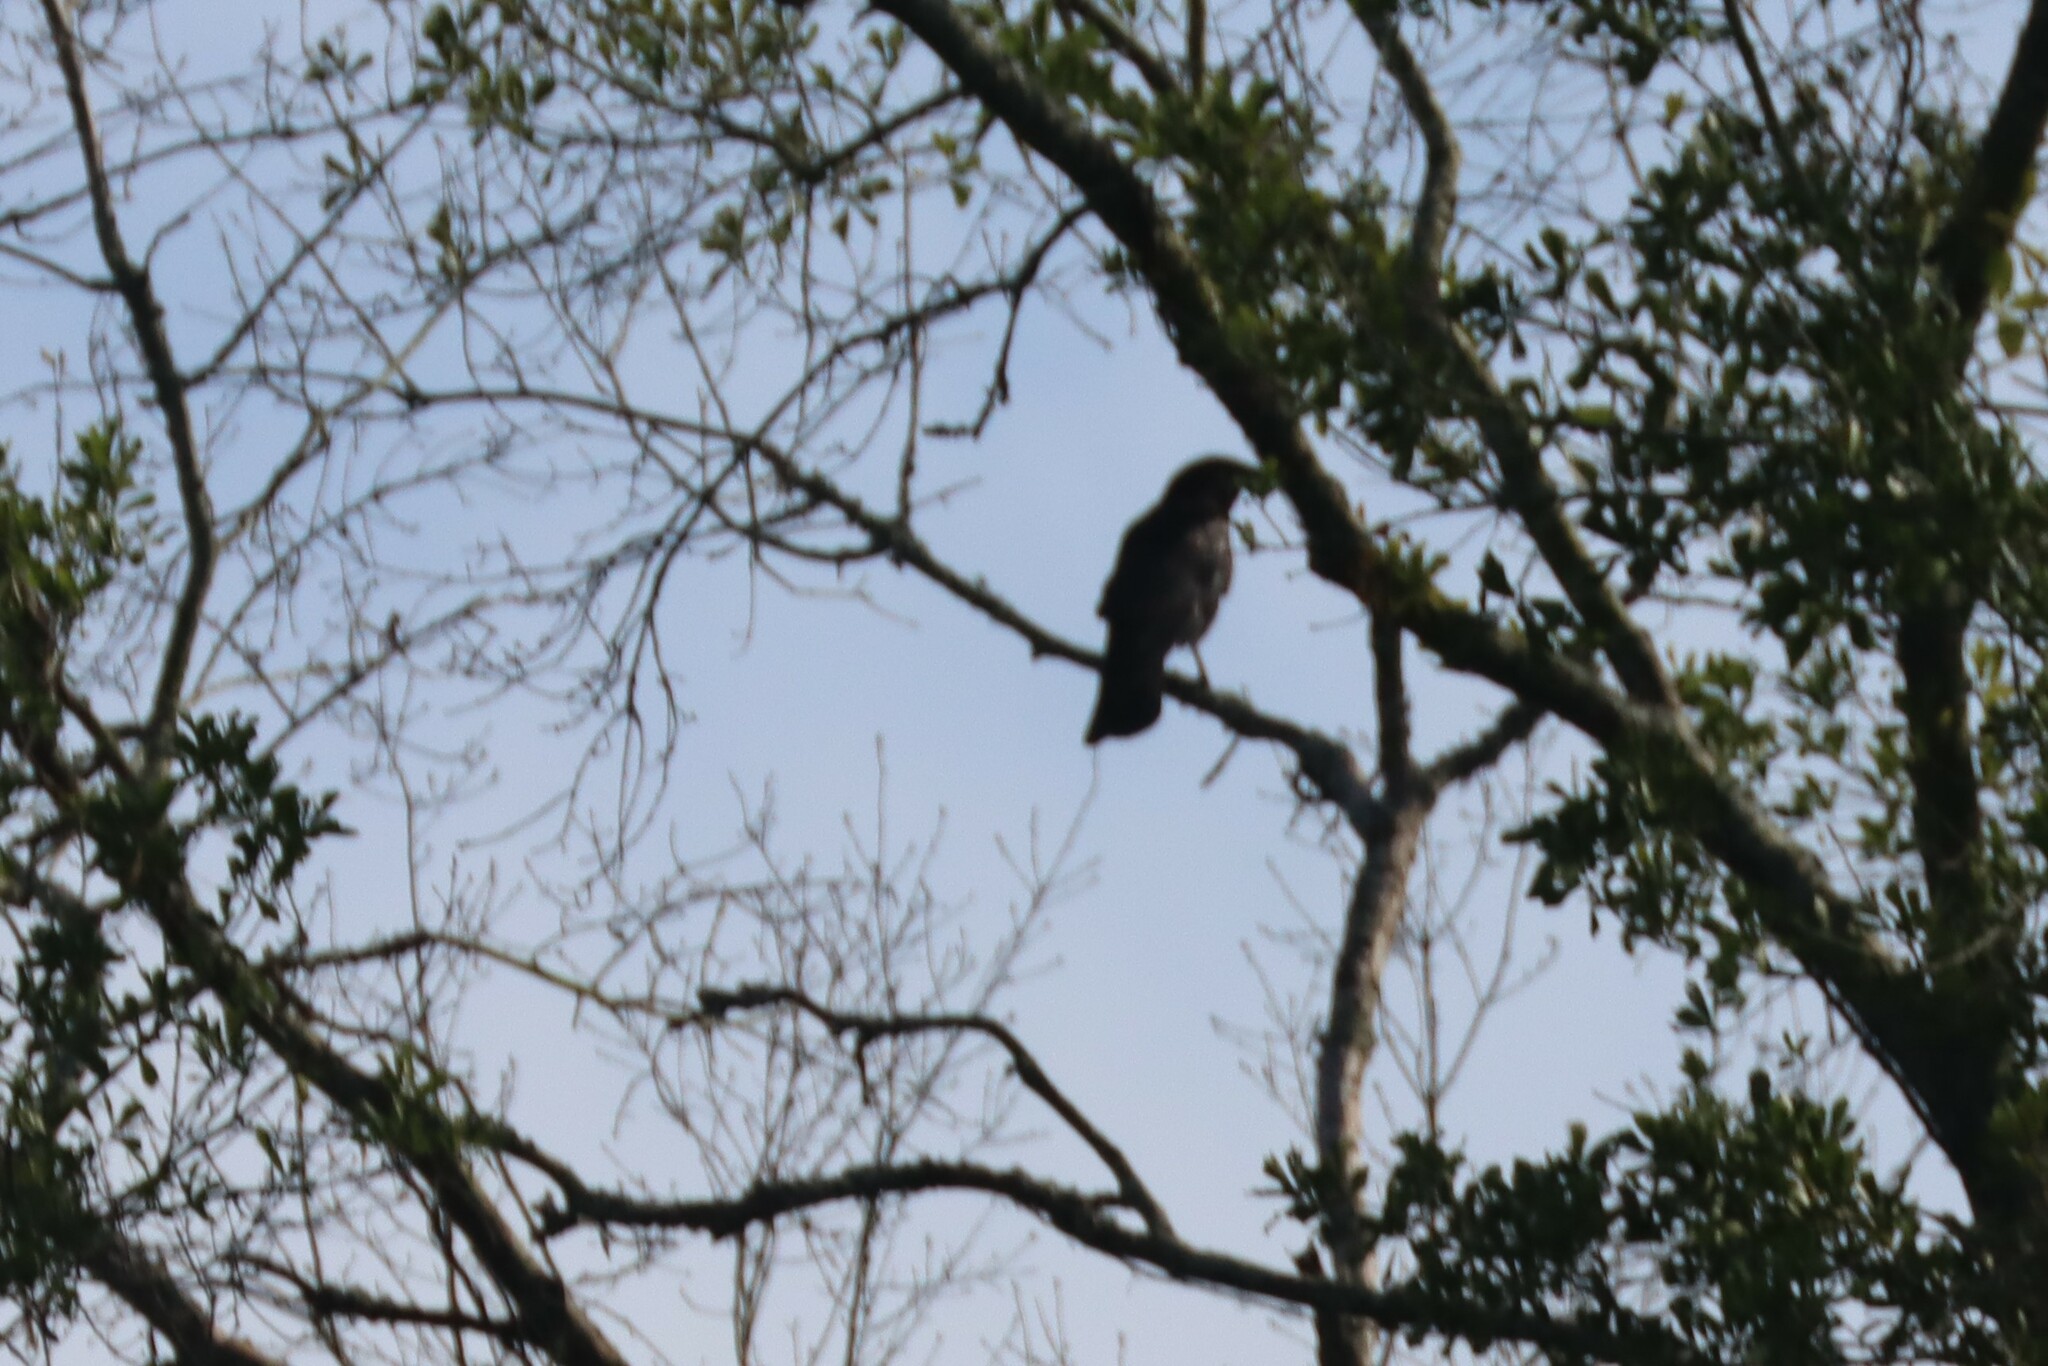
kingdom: Animalia
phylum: Chordata
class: Aves
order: Passeriformes
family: Corvidae
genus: Corvus
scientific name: Corvus brachyrhynchos
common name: American crow
